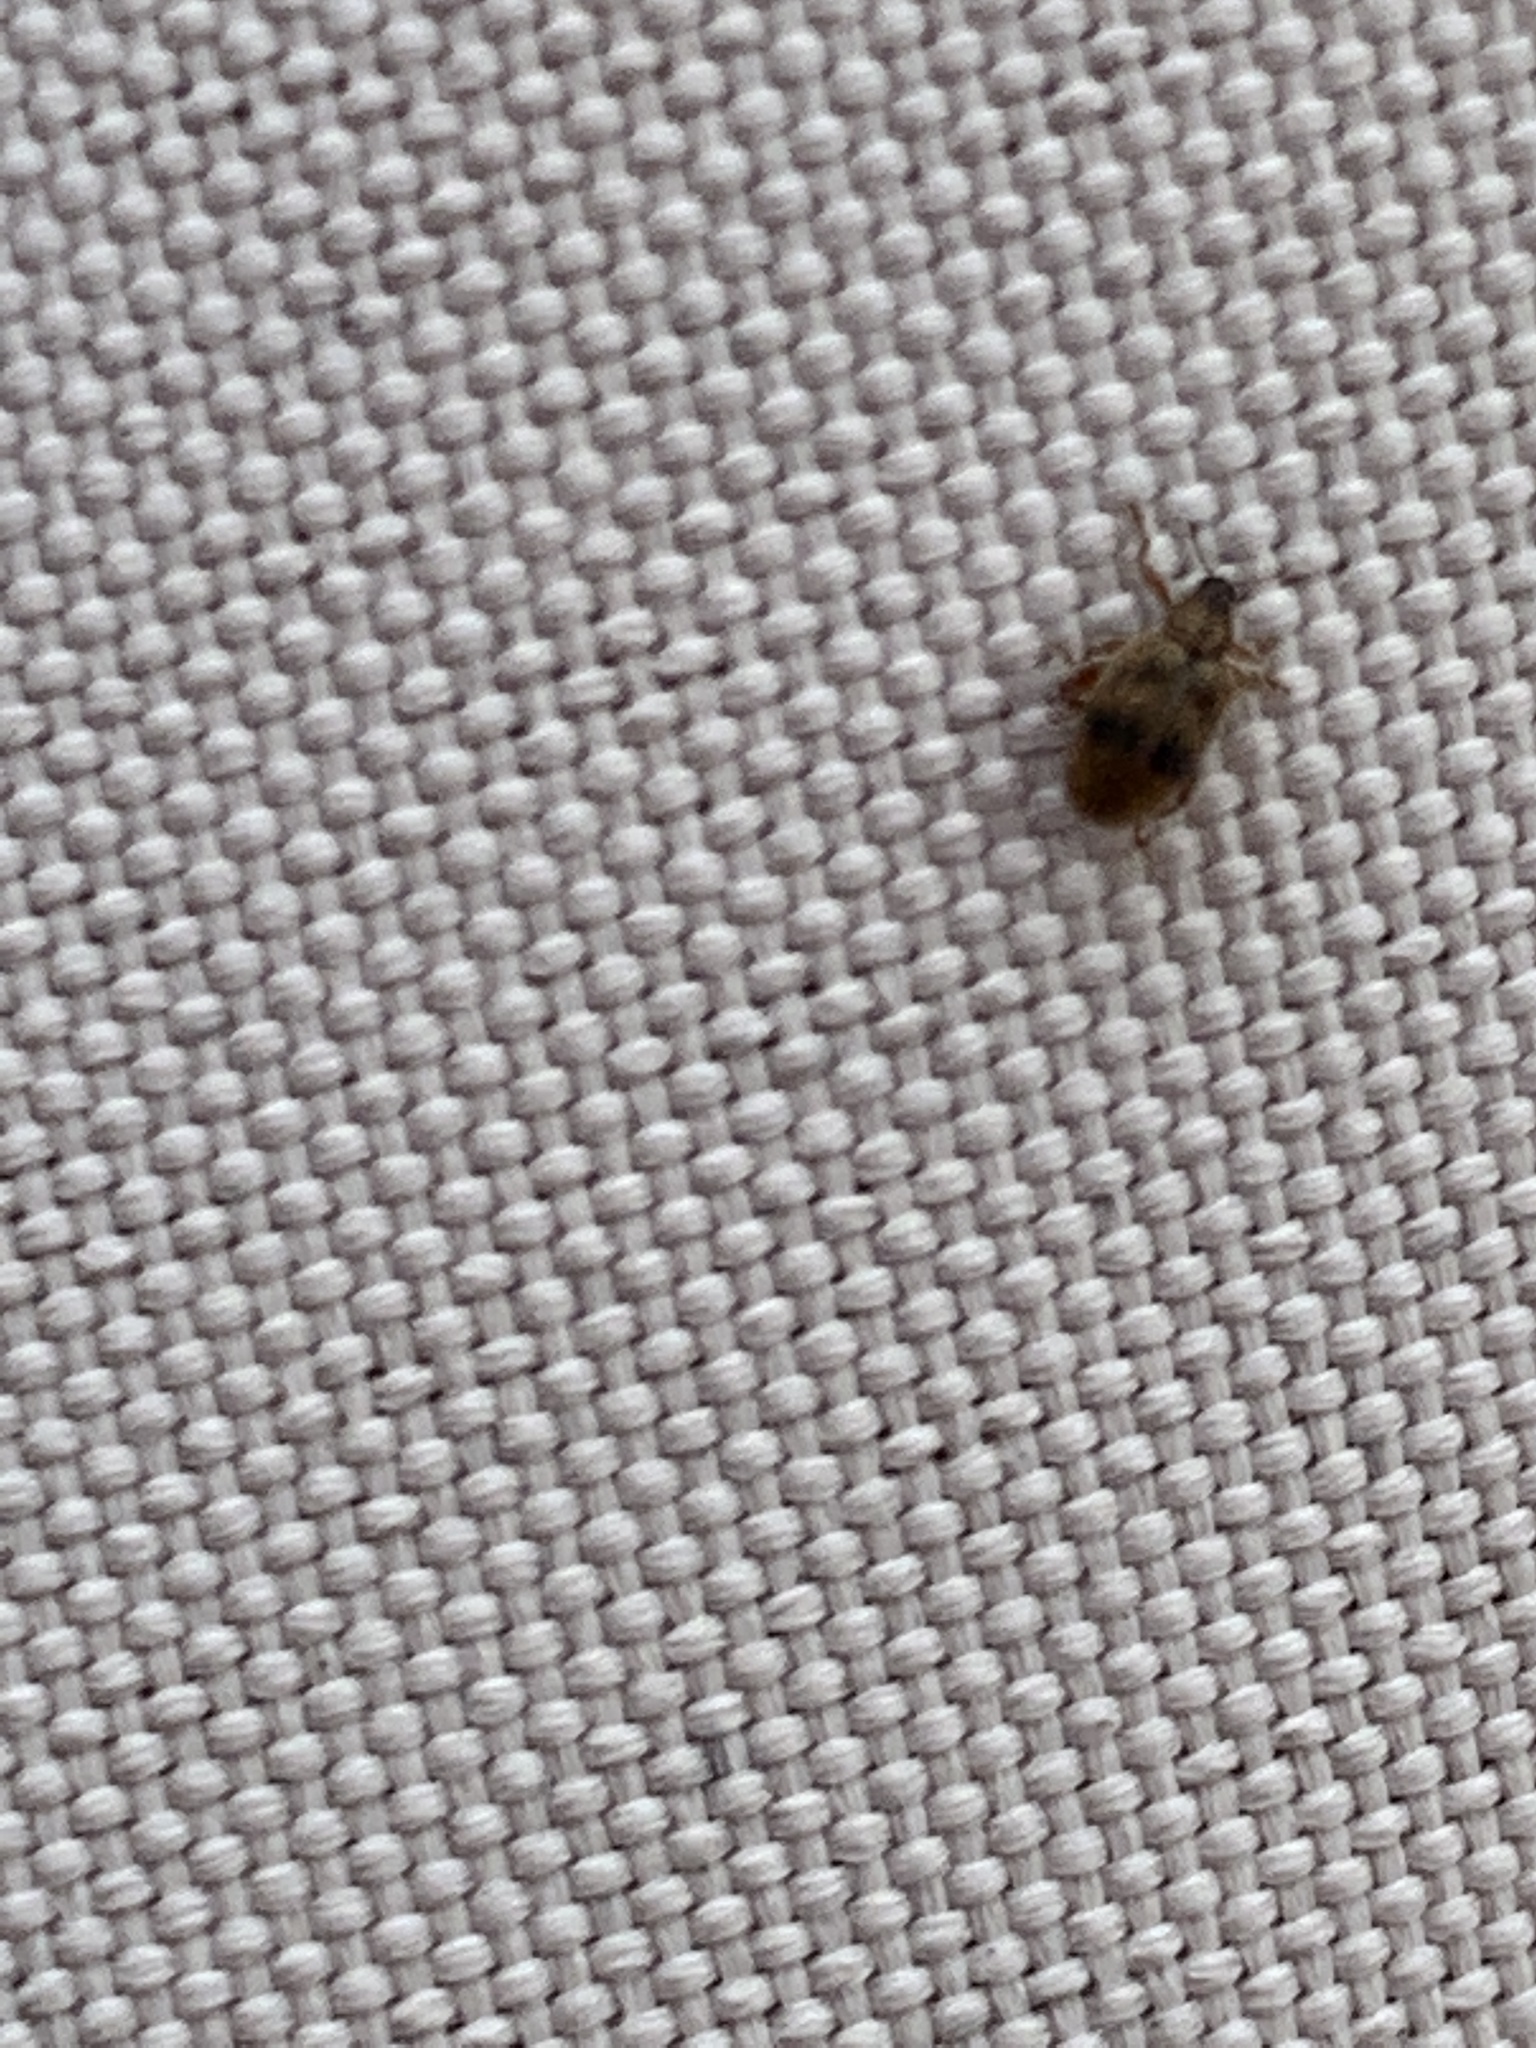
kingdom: Animalia
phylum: Arthropoda
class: Insecta
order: Coleoptera
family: Curculionidae
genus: Orchestes
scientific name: Orchestes steppensis
